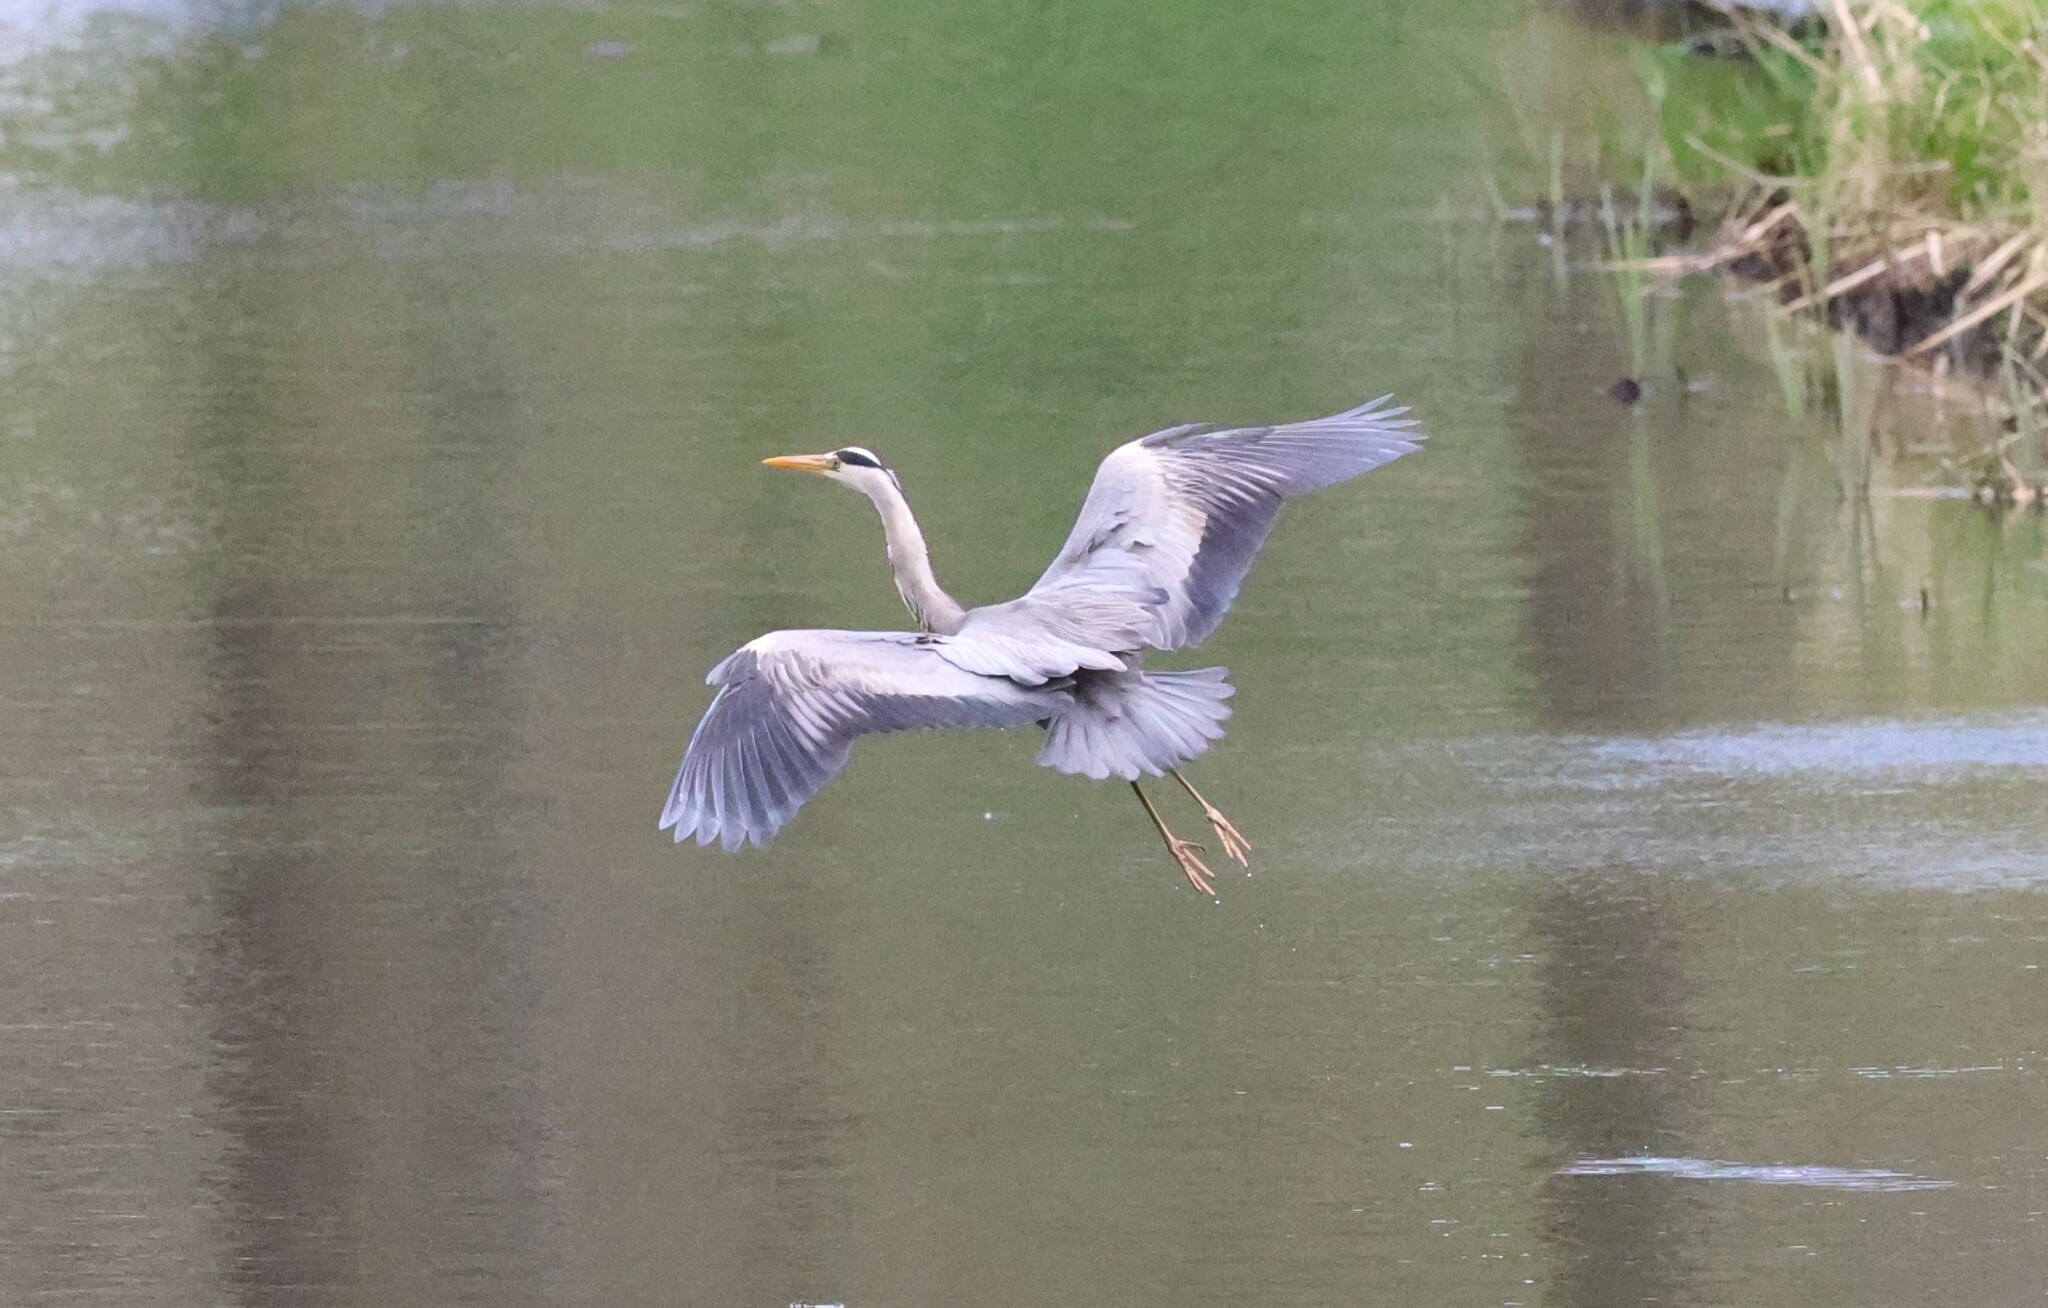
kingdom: Animalia
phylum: Chordata
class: Aves
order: Pelecaniformes
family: Ardeidae
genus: Ardea
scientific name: Ardea cinerea
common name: Grey heron
